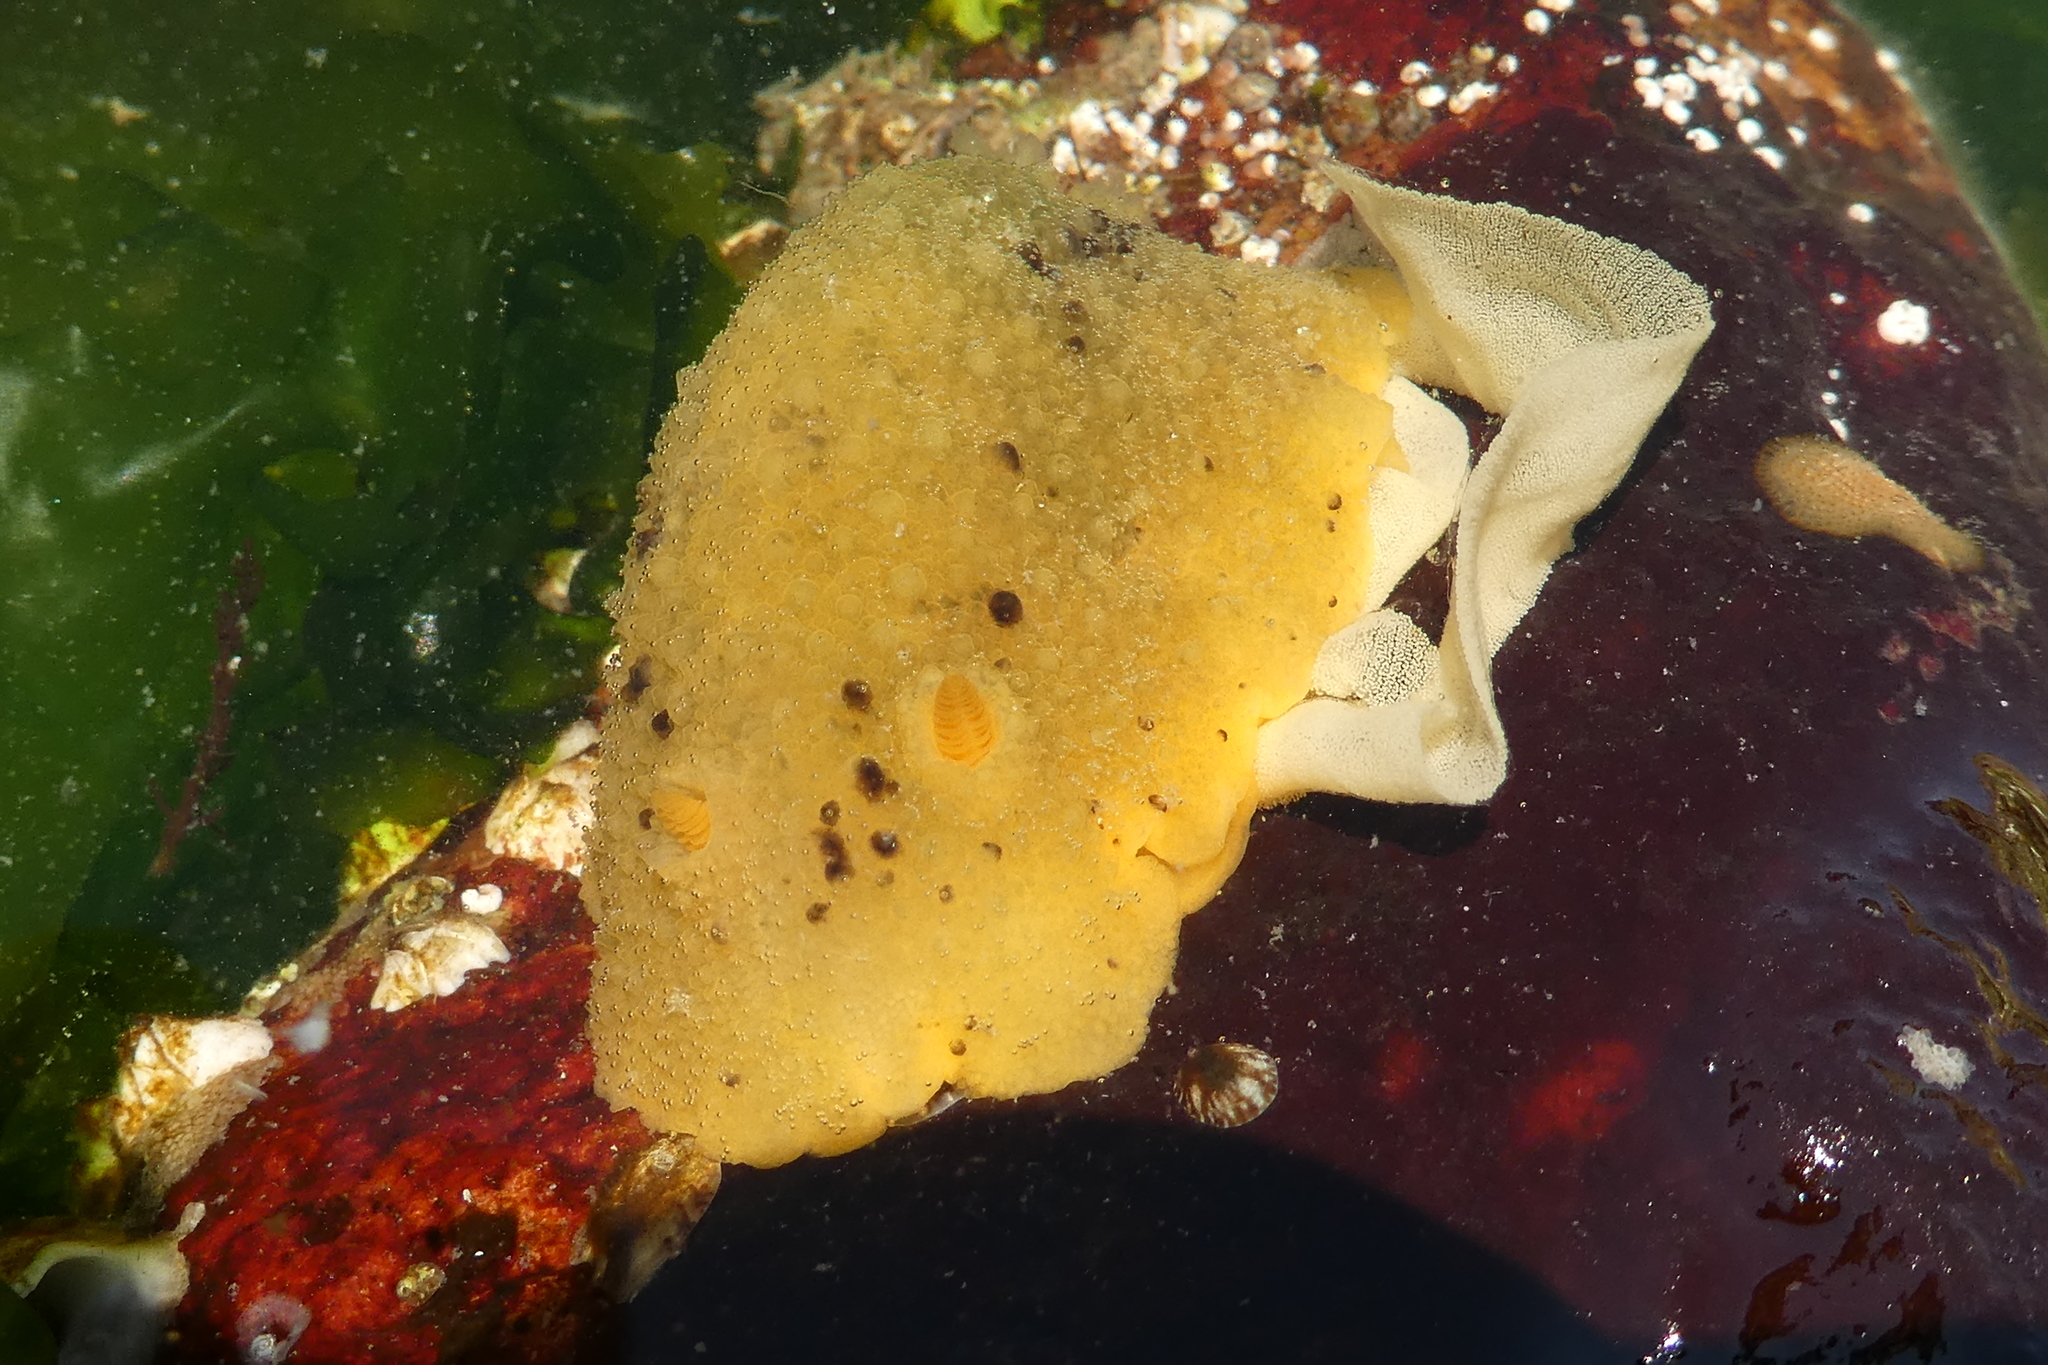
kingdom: Animalia
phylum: Mollusca
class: Gastropoda
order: Nudibranchia
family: Dorididae
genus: Doris
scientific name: Doris montereyensis
